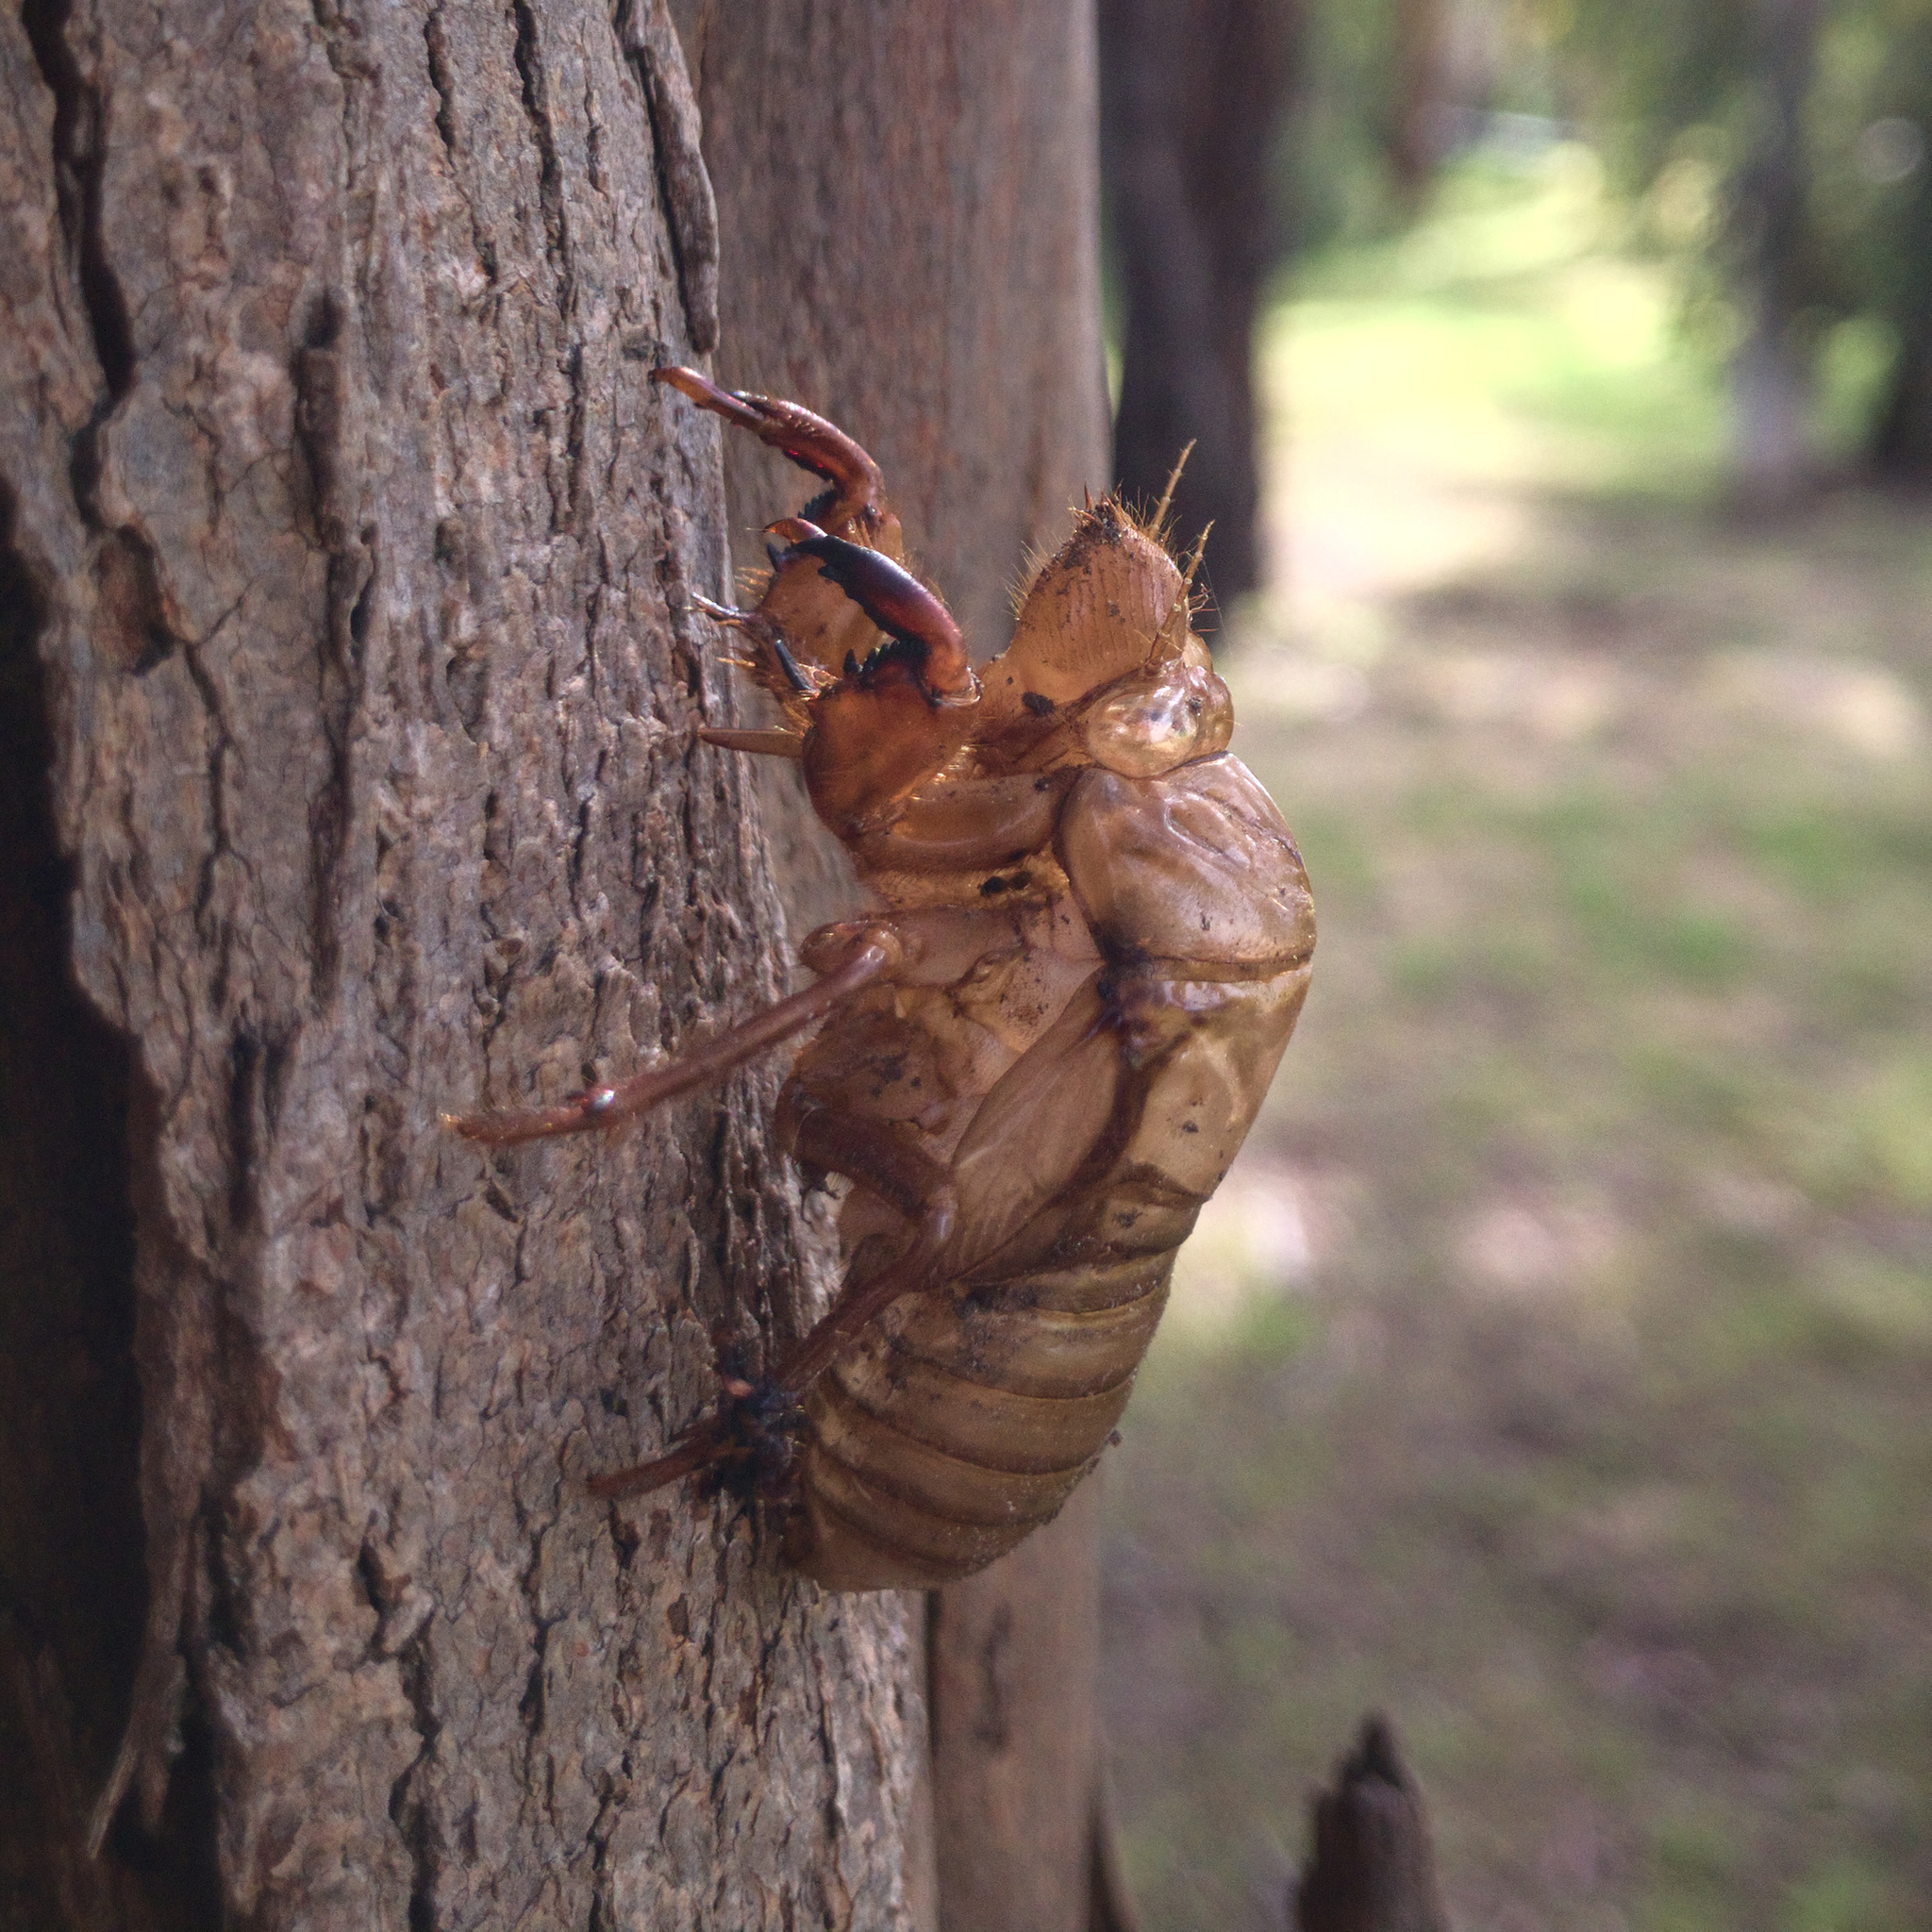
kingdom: Animalia
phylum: Arthropoda
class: Insecta
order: Hemiptera
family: Cicadidae
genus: Cyclochila
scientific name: Cyclochila australasiae
